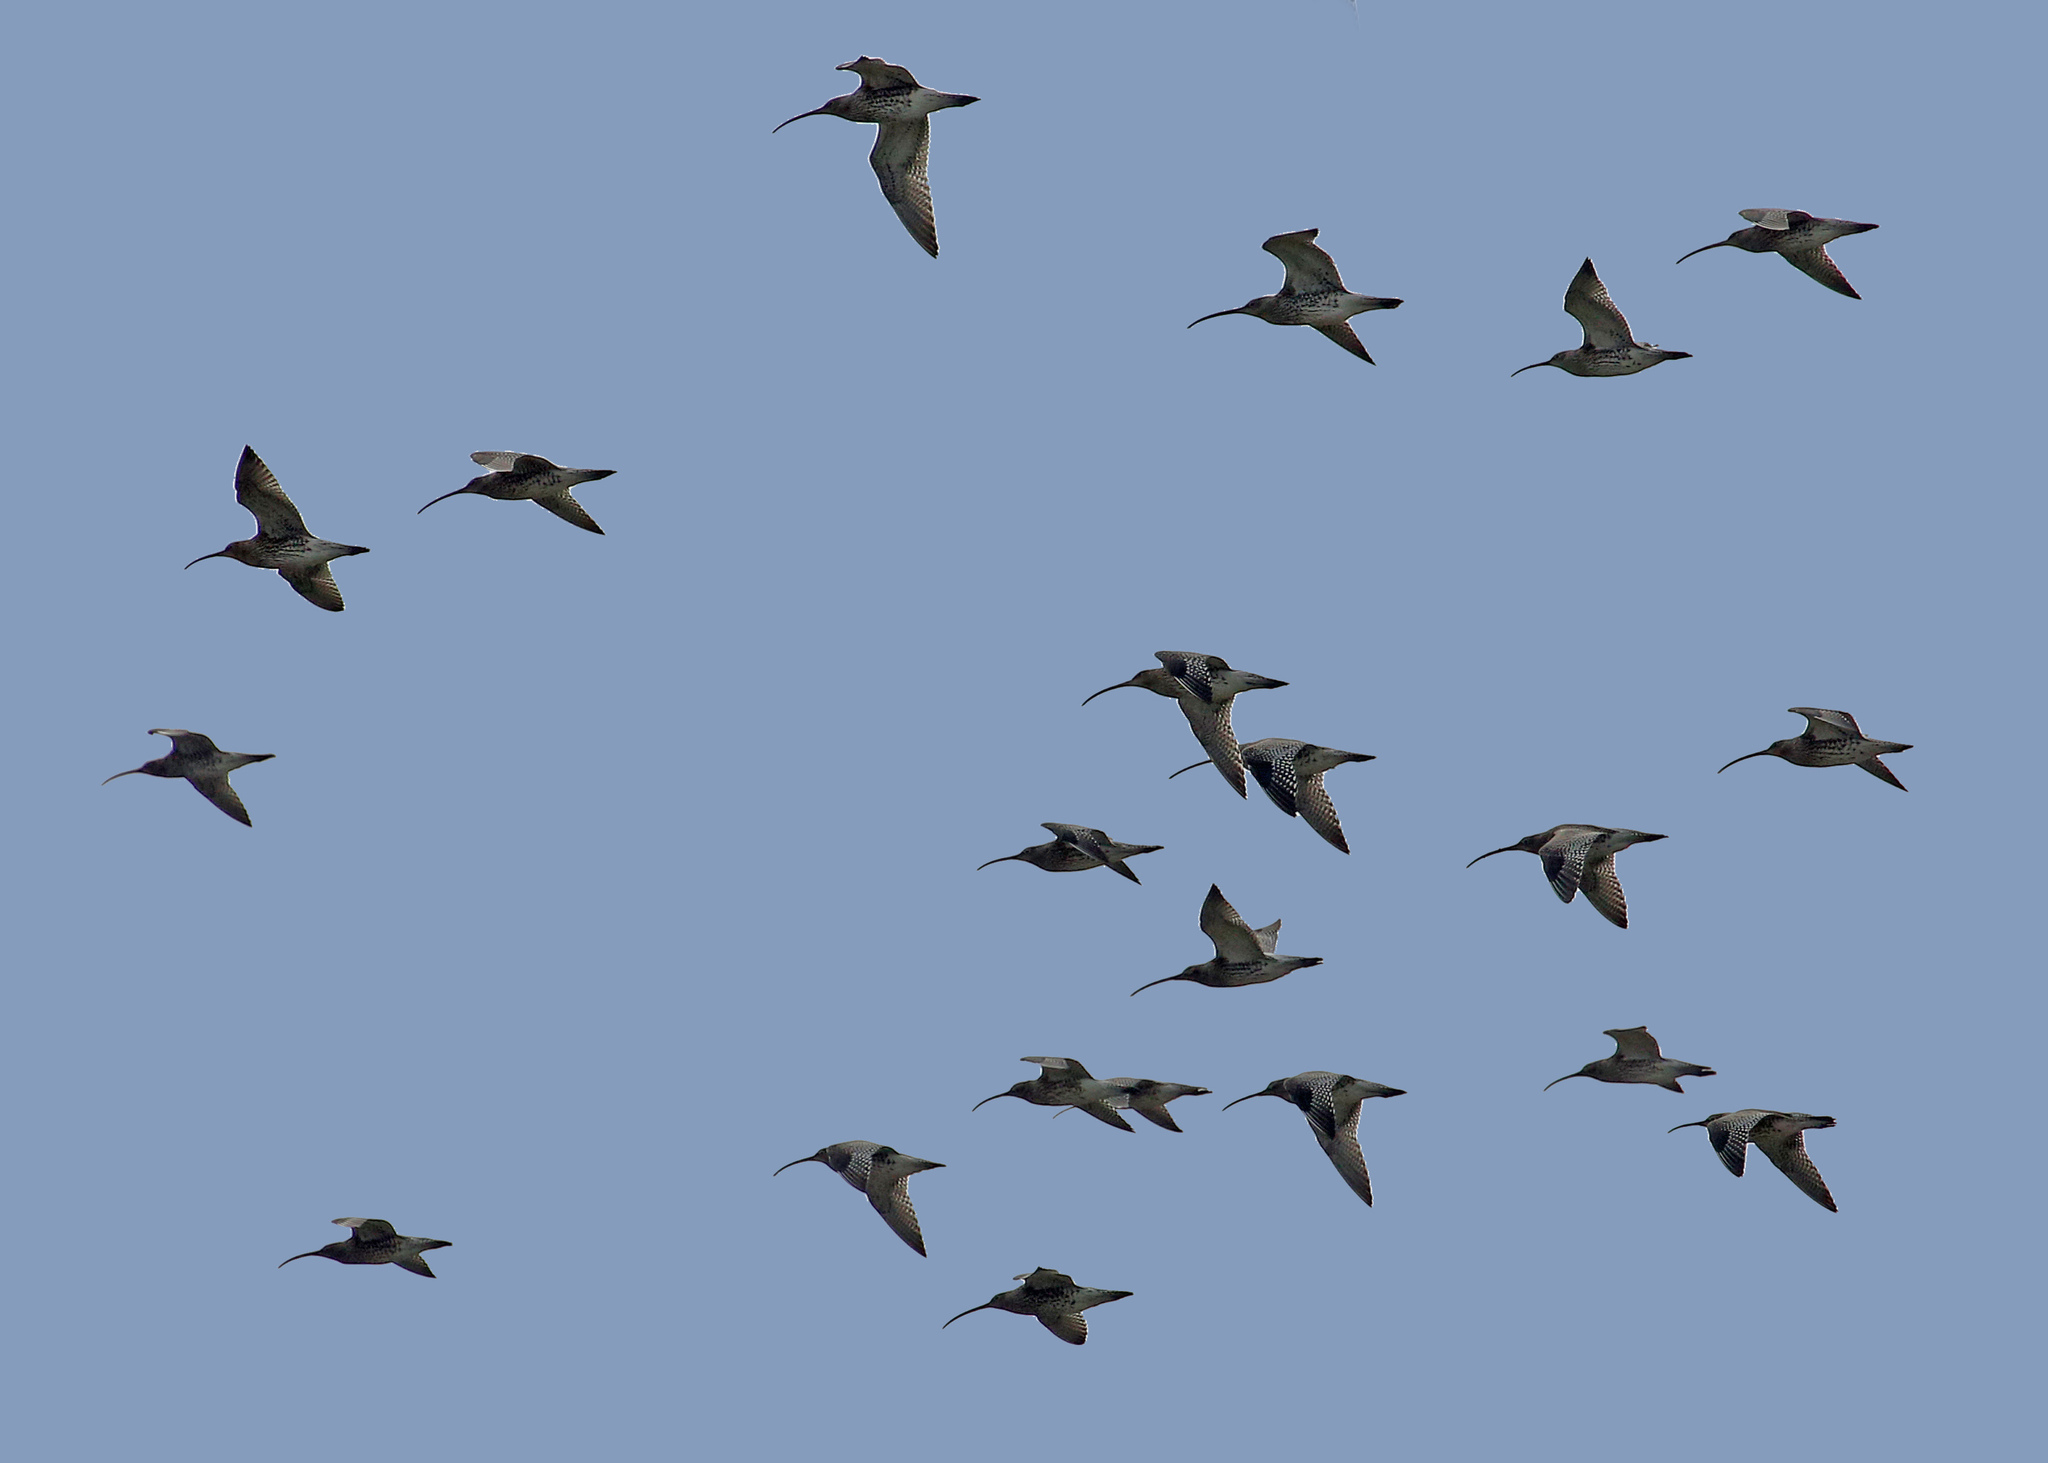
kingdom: Animalia
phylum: Chordata
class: Aves
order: Charadriiformes
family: Scolopacidae
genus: Numenius
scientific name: Numenius arquata
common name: Eurasian curlew
